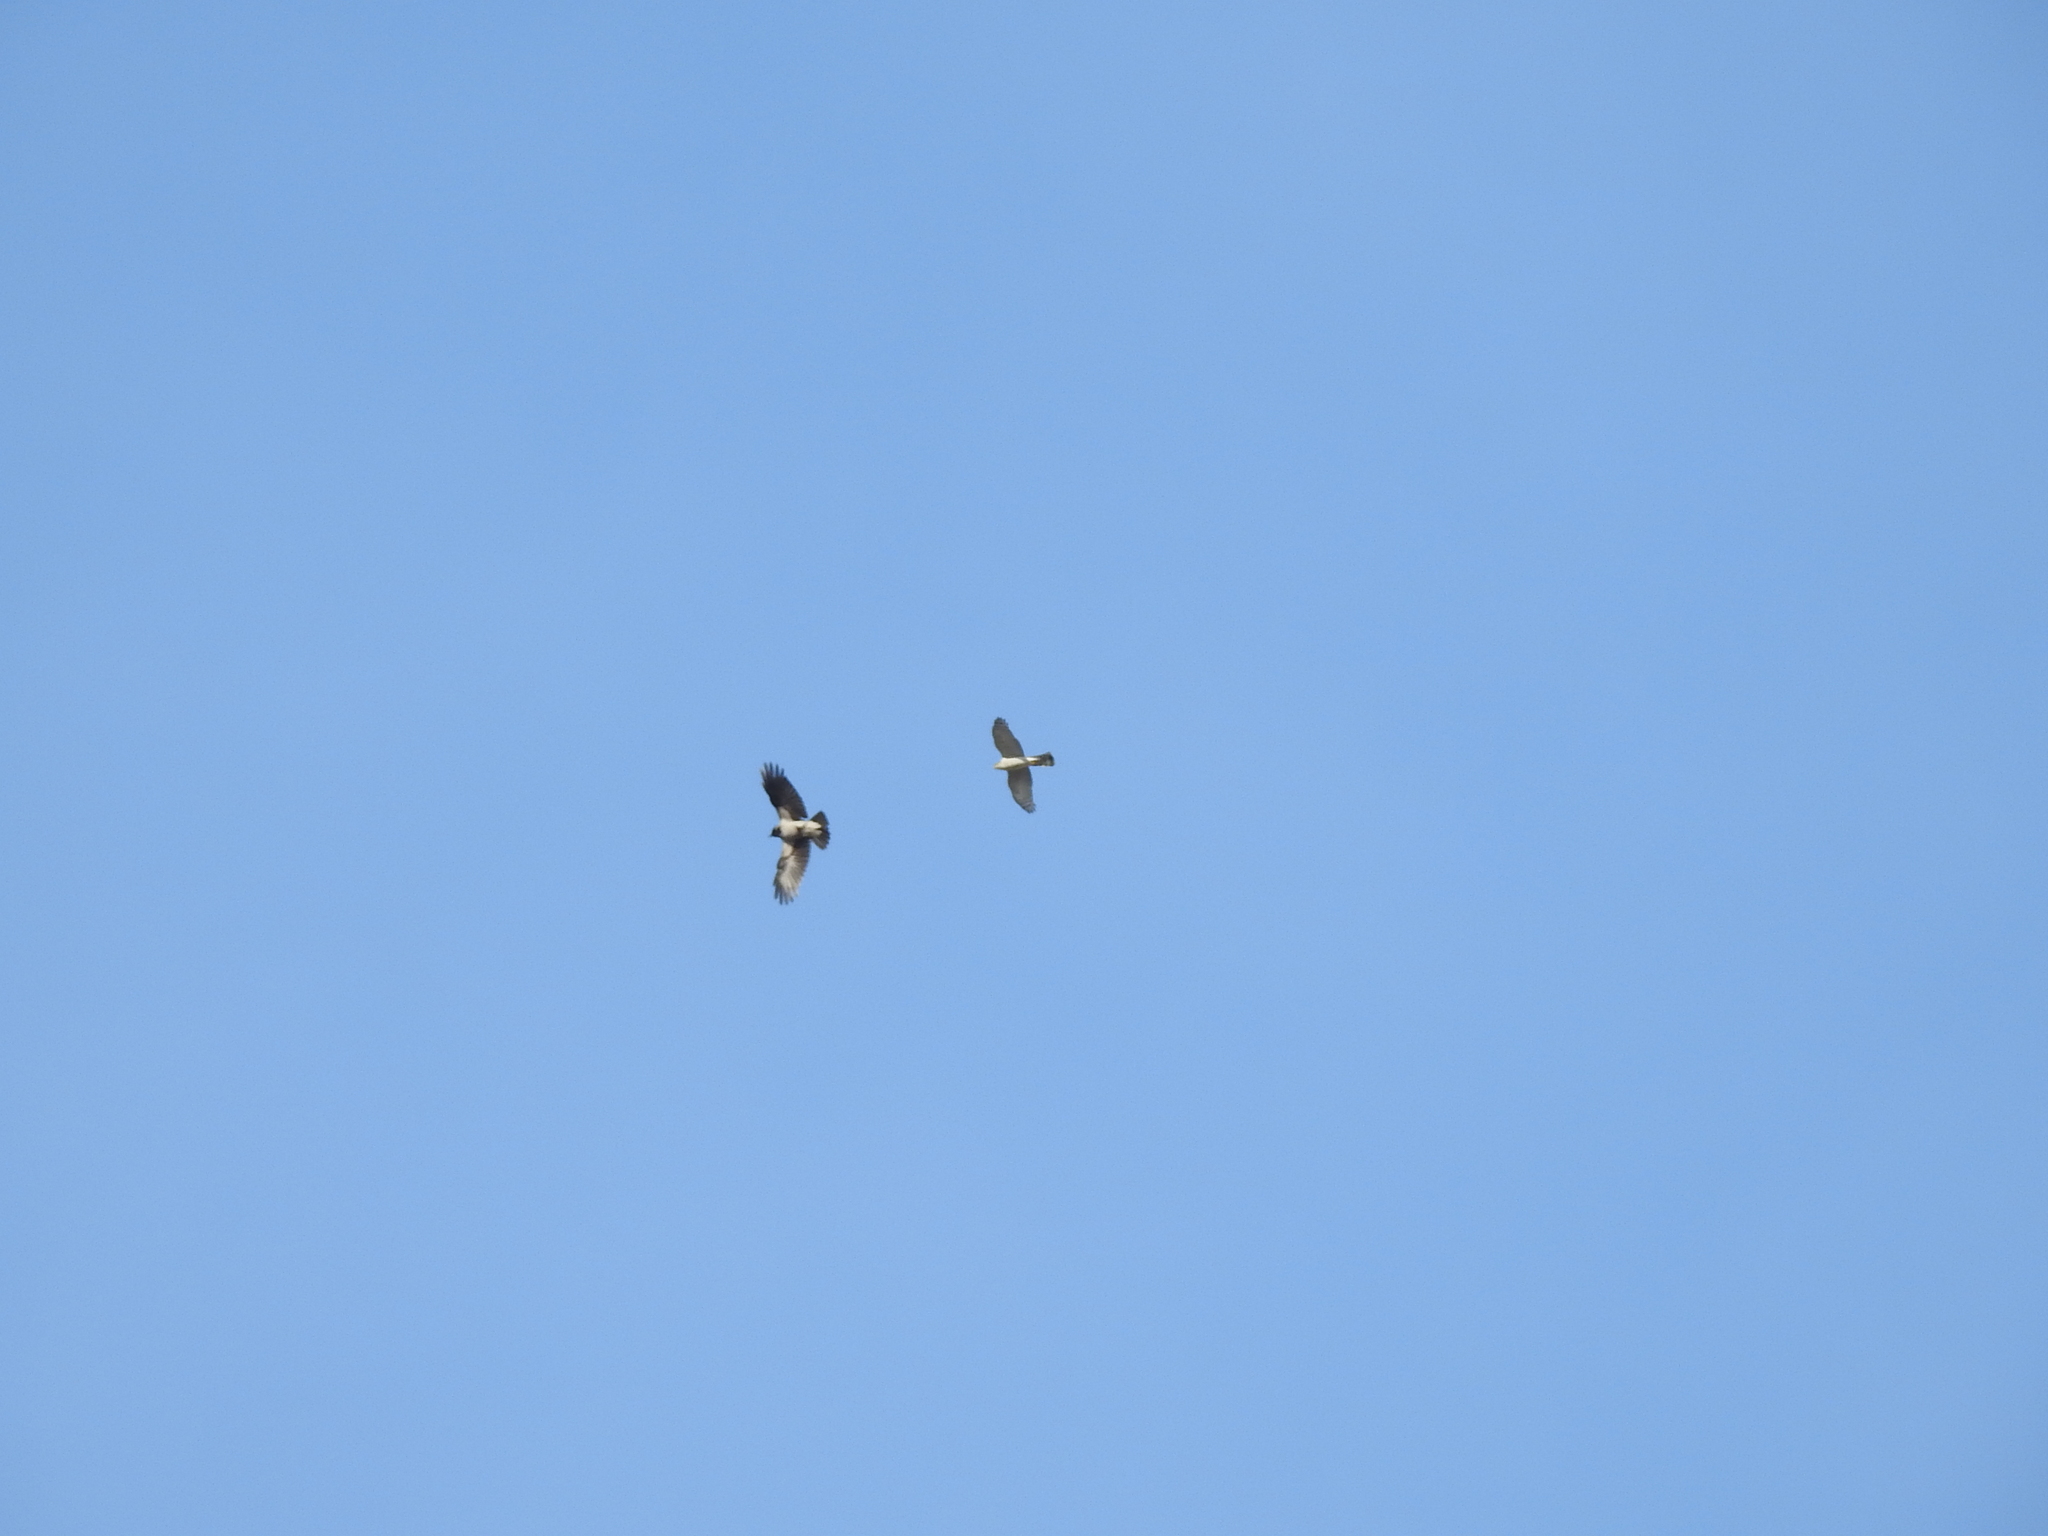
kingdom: Animalia
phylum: Chordata
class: Aves
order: Accipitriformes
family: Accipitridae
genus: Accipiter
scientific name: Accipiter nisus
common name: Eurasian sparrowhawk
